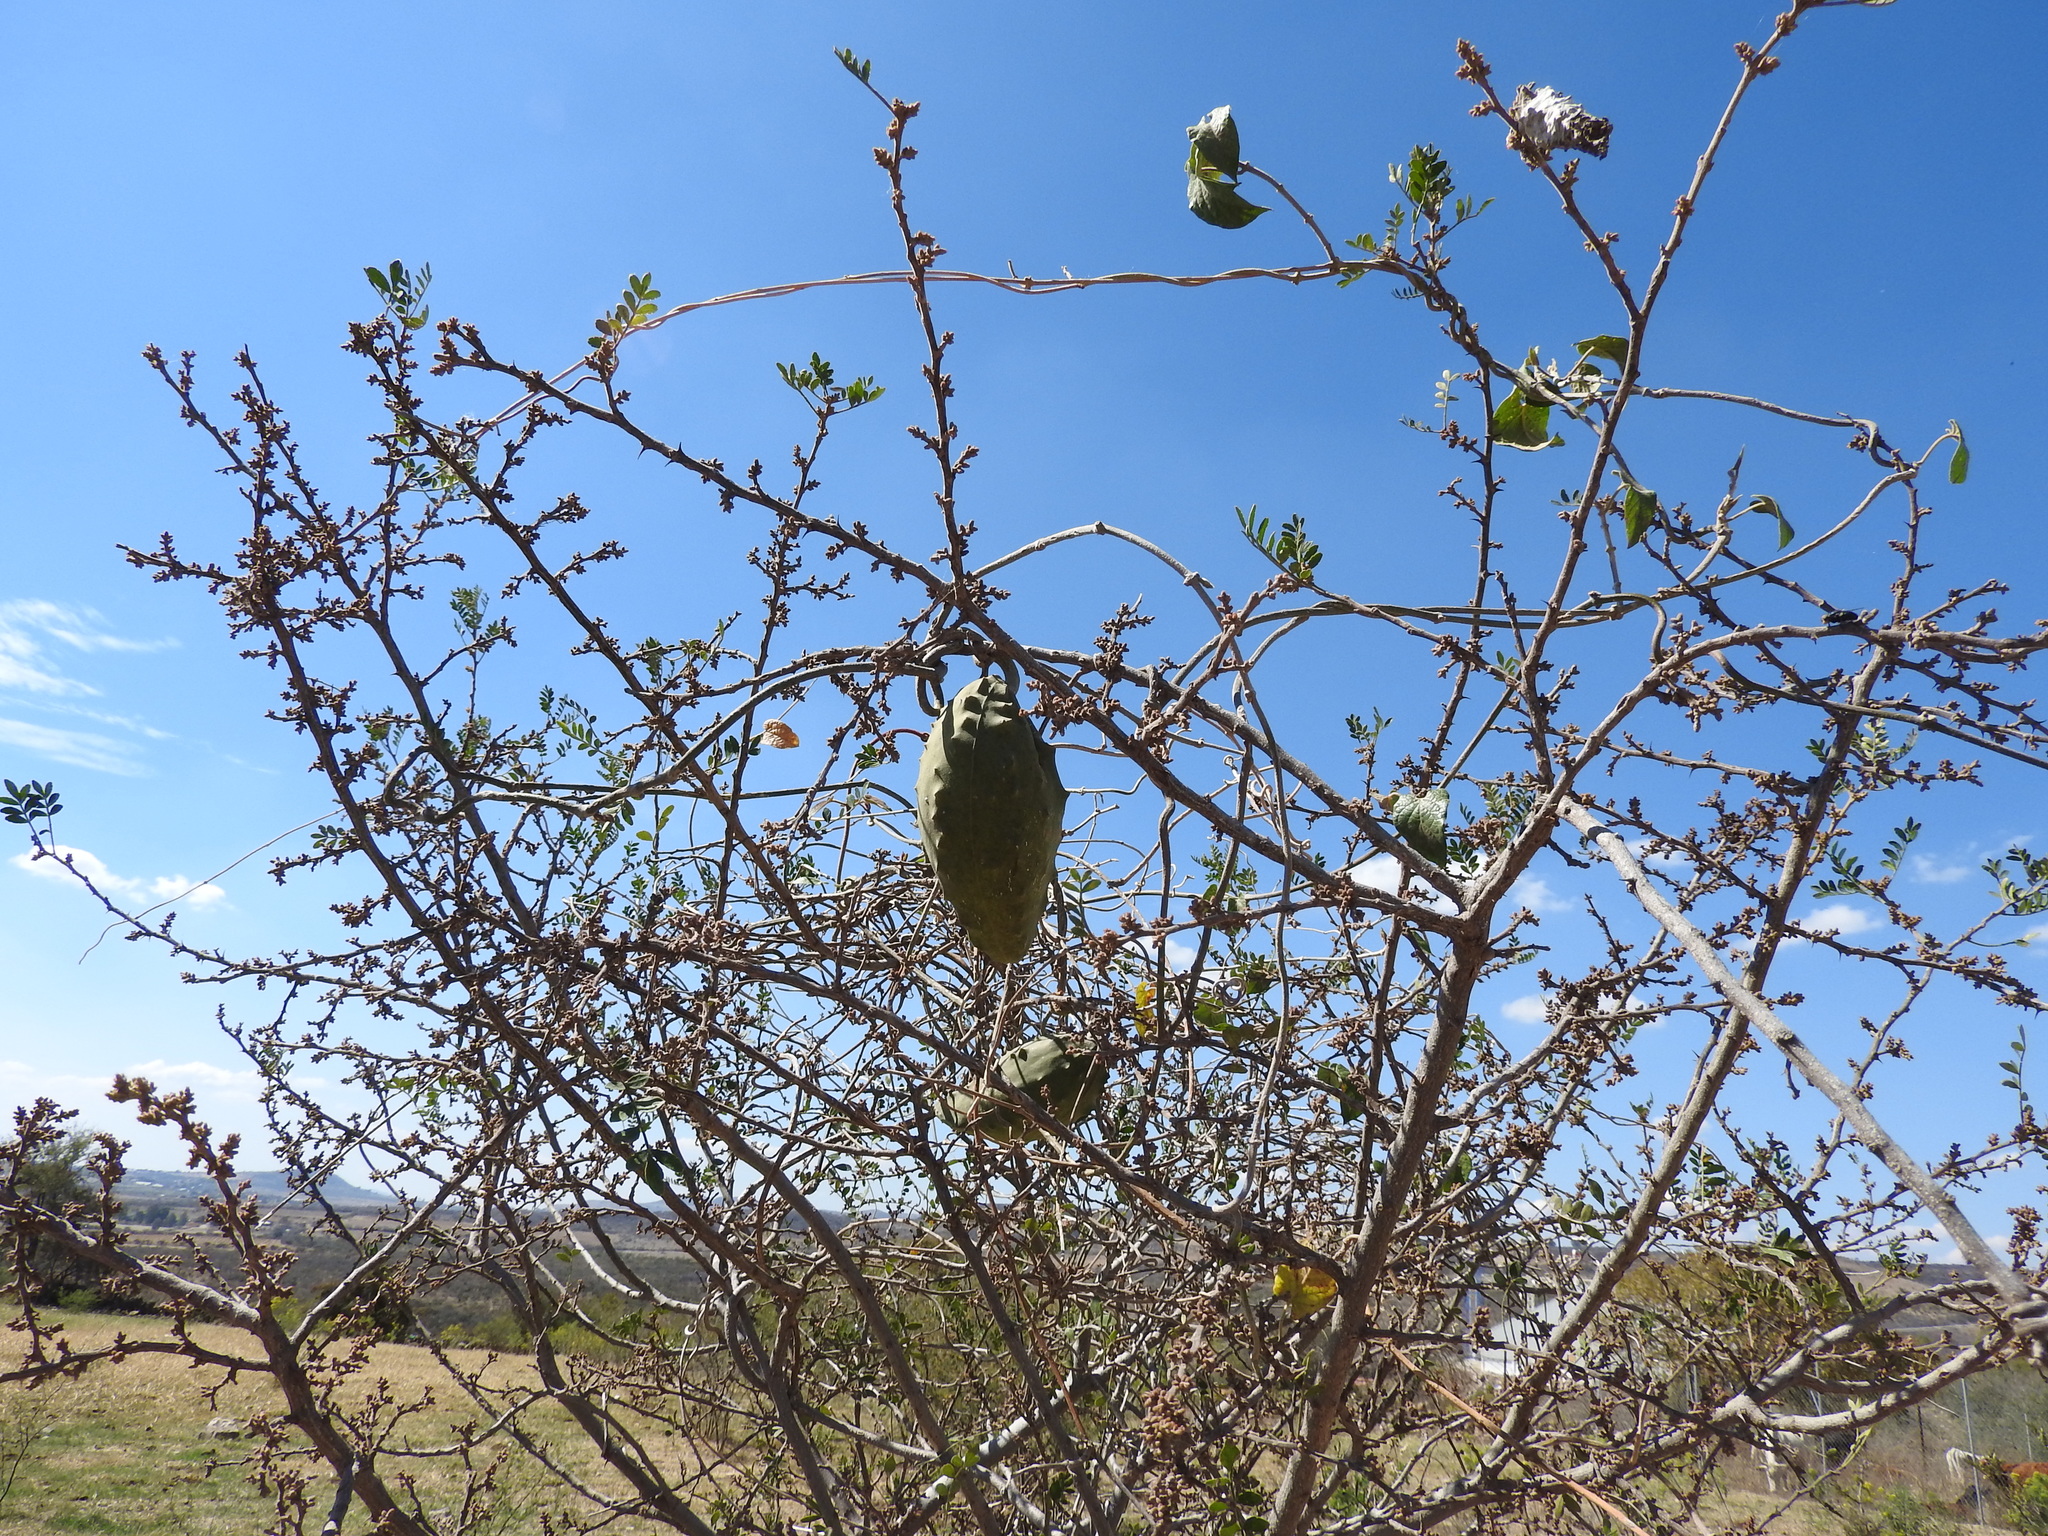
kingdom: Plantae
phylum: Tracheophyta
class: Magnoliopsida
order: Gentianales
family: Apocynaceae
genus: Gonolobus
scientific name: Gonolobus grandiflorus
